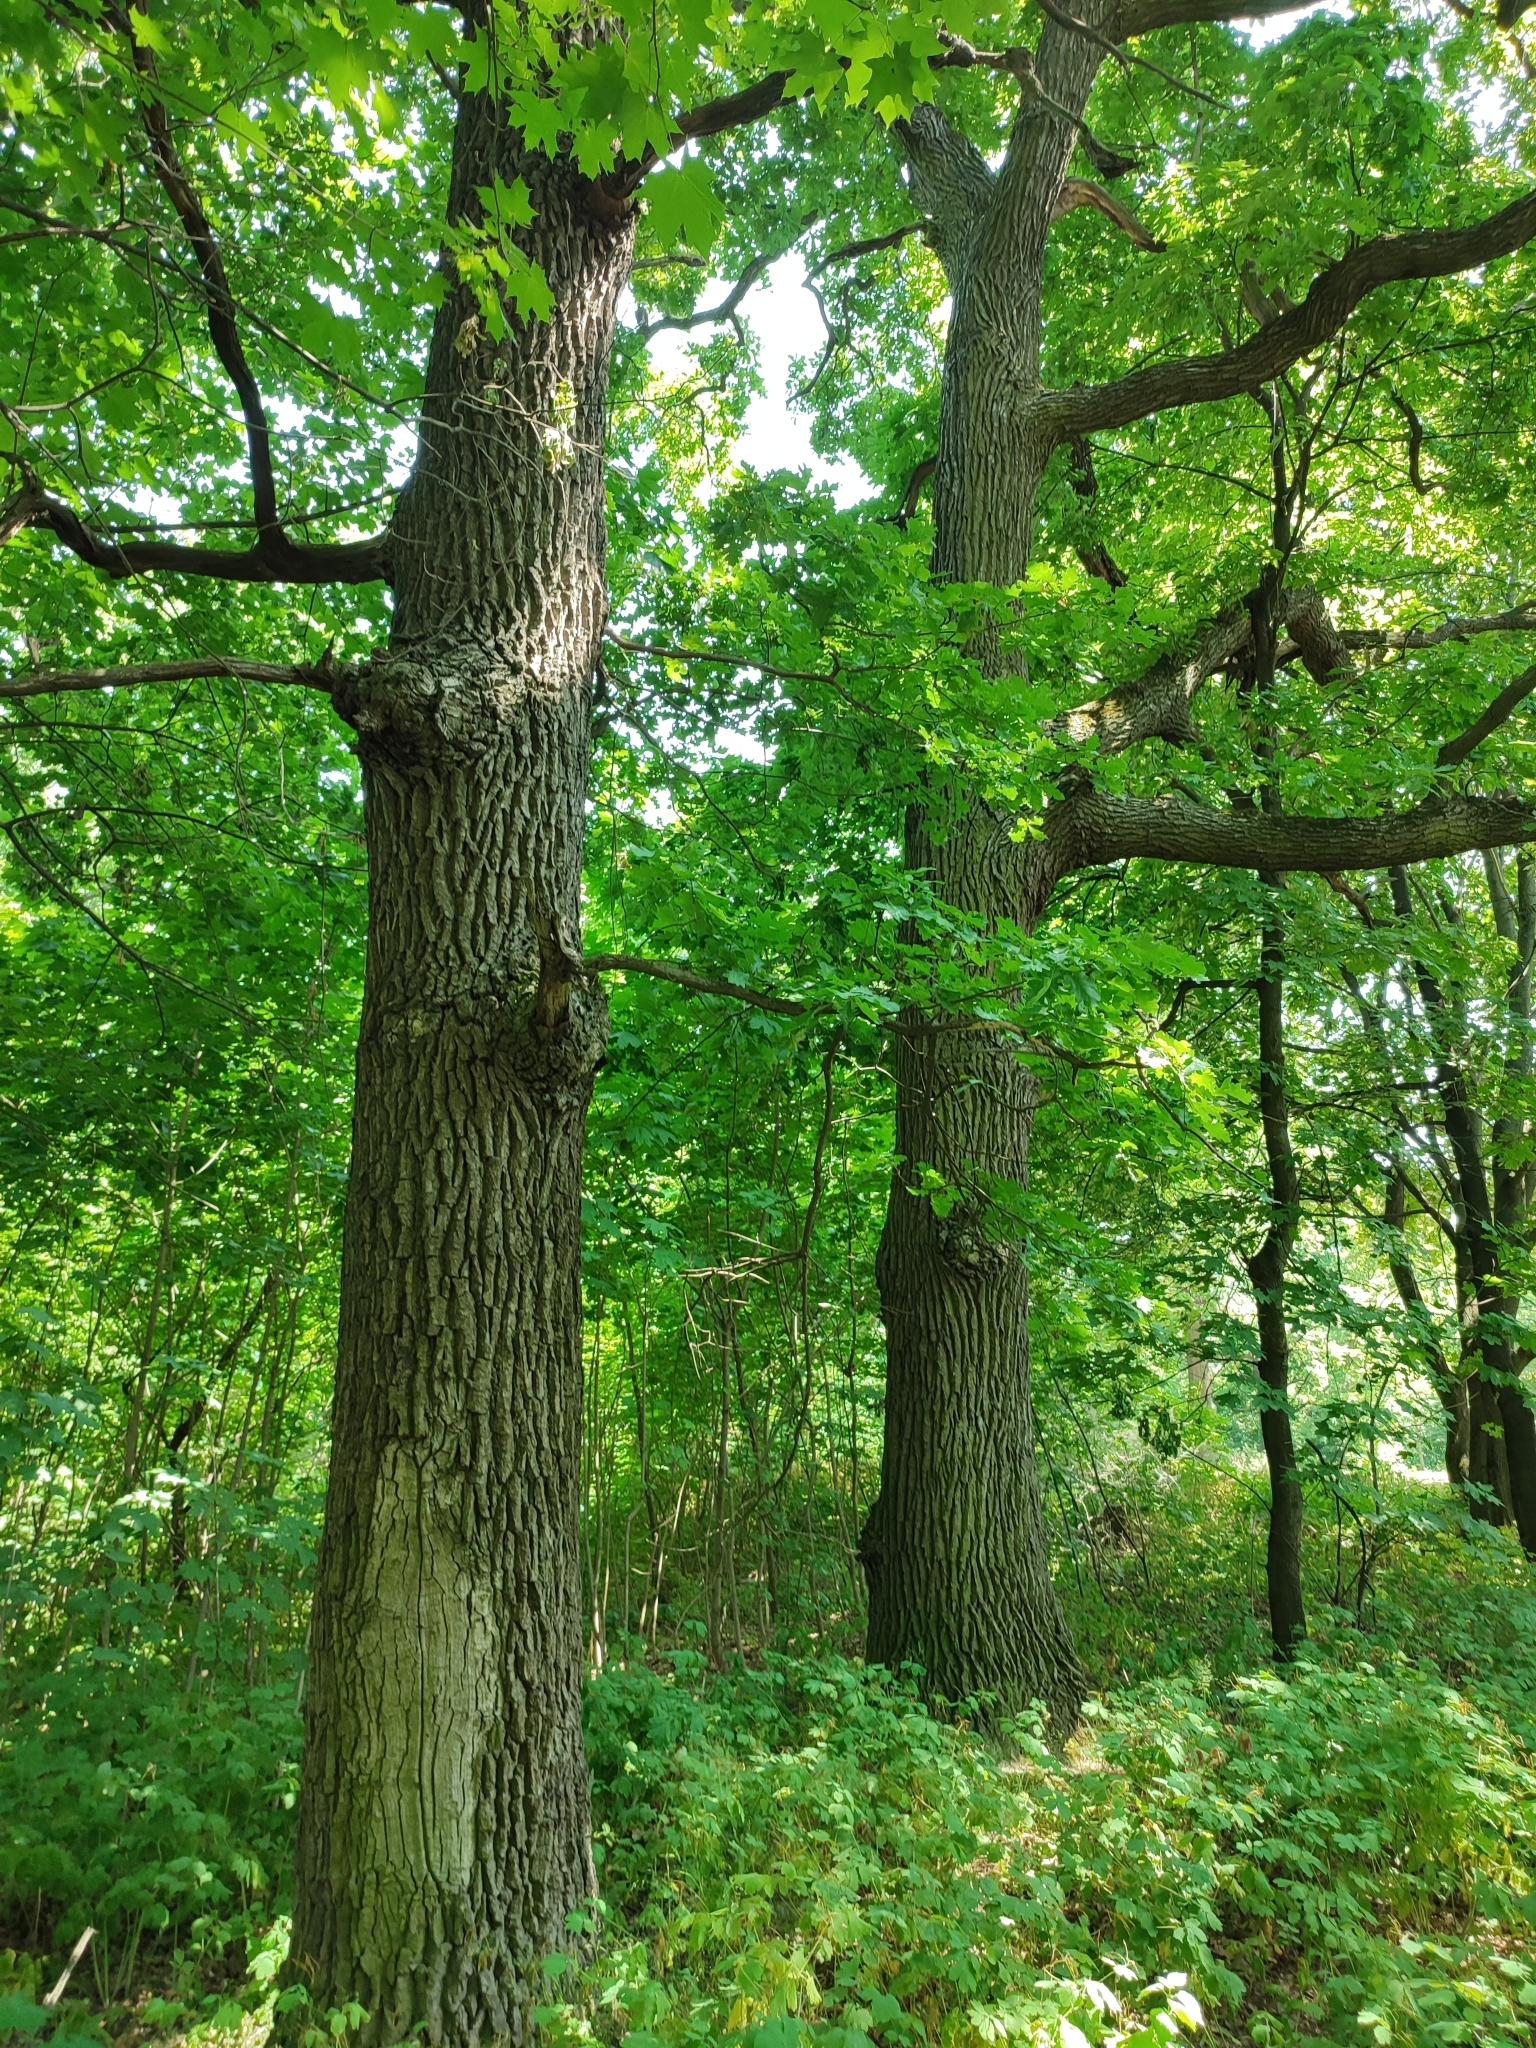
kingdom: Plantae
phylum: Tracheophyta
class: Magnoliopsida
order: Fagales
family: Fagaceae
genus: Quercus
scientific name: Quercus robur
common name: Pedunculate oak
